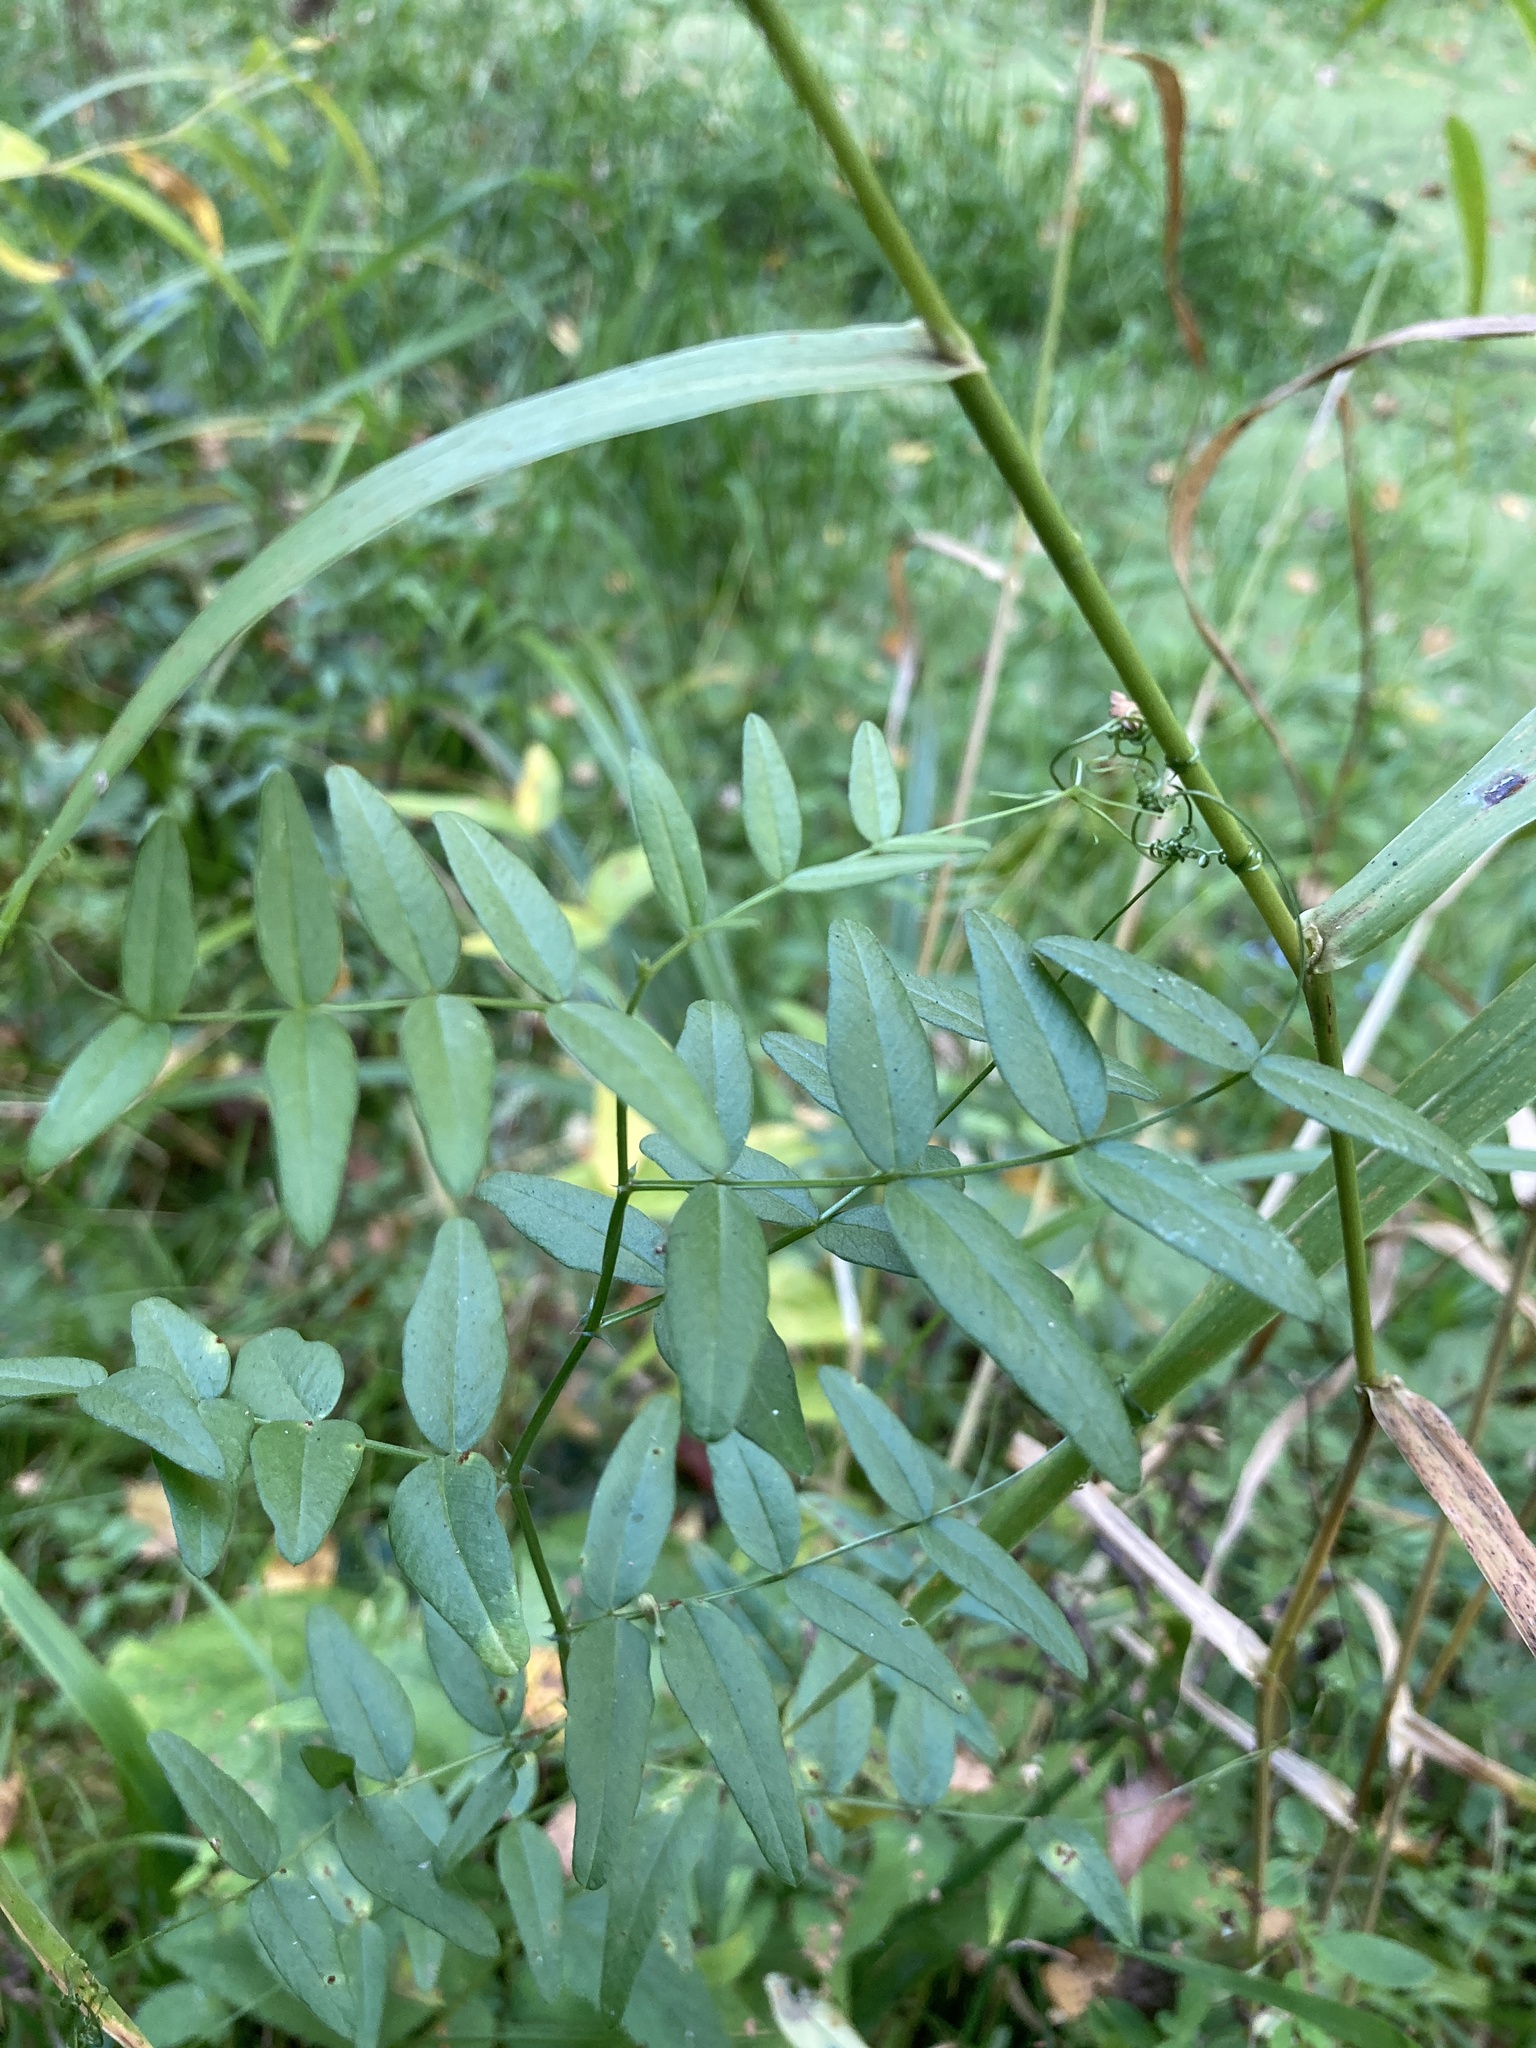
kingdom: Plantae
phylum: Tracheophyta
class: Magnoliopsida
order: Fabales
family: Fabaceae
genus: Vicia
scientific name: Vicia sepium
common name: Bush vetch
